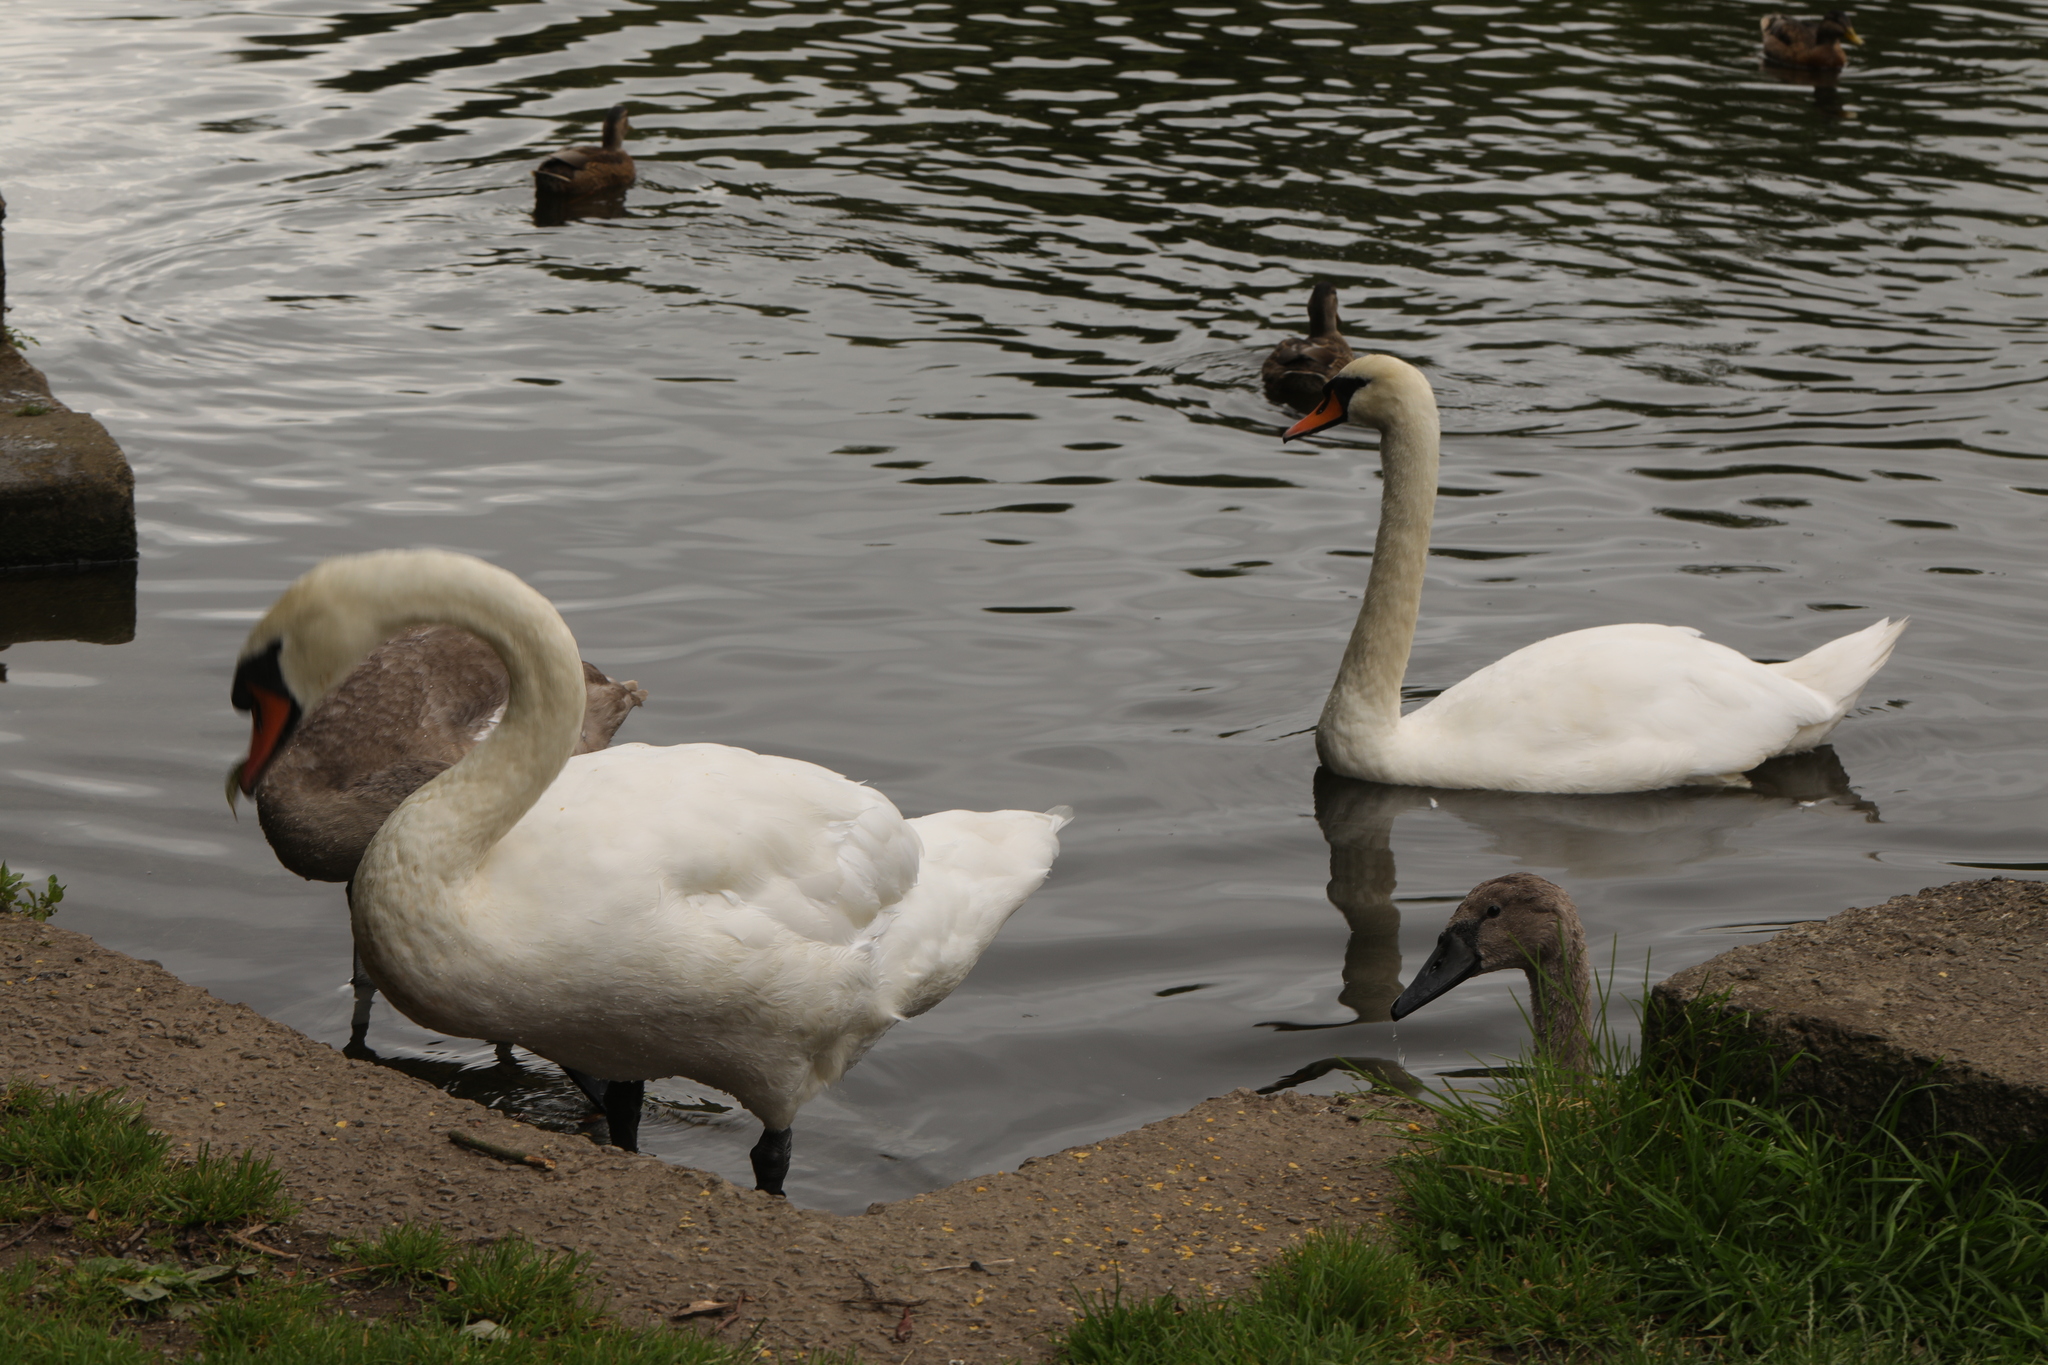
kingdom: Animalia
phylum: Chordata
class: Aves
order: Anseriformes
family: Anatidae
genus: Cygnus
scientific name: Cygnus olor
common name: Mute swan
